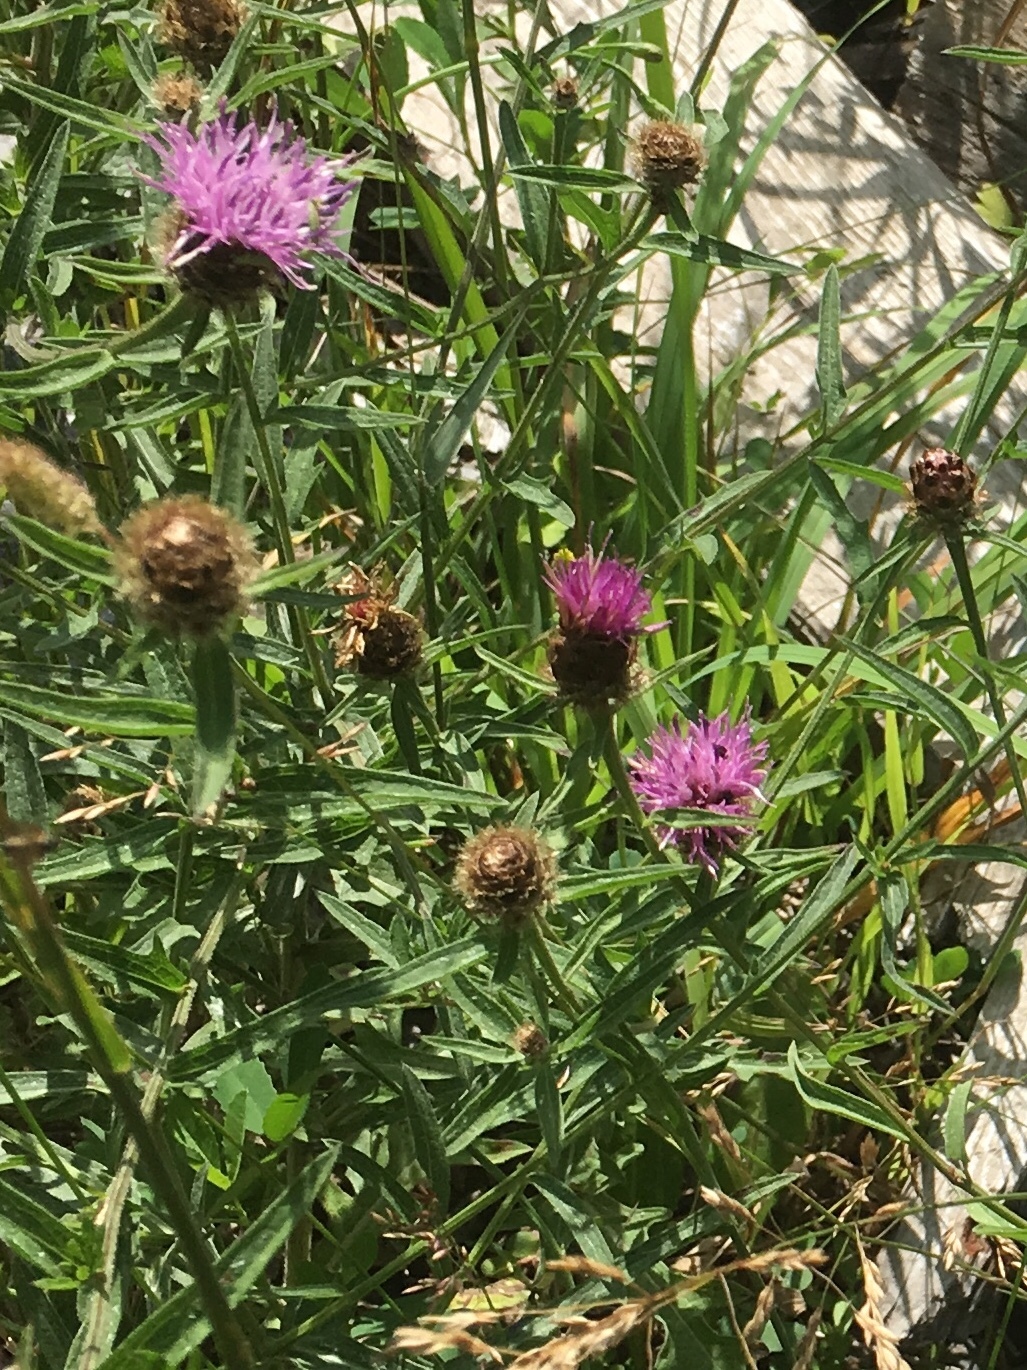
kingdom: Plantae
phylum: Tracheophyta
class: Magnoliopsida
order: Asterales
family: Asteraceae
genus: Centaurea
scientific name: Centaurea nigra
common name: Lesser knapweed
